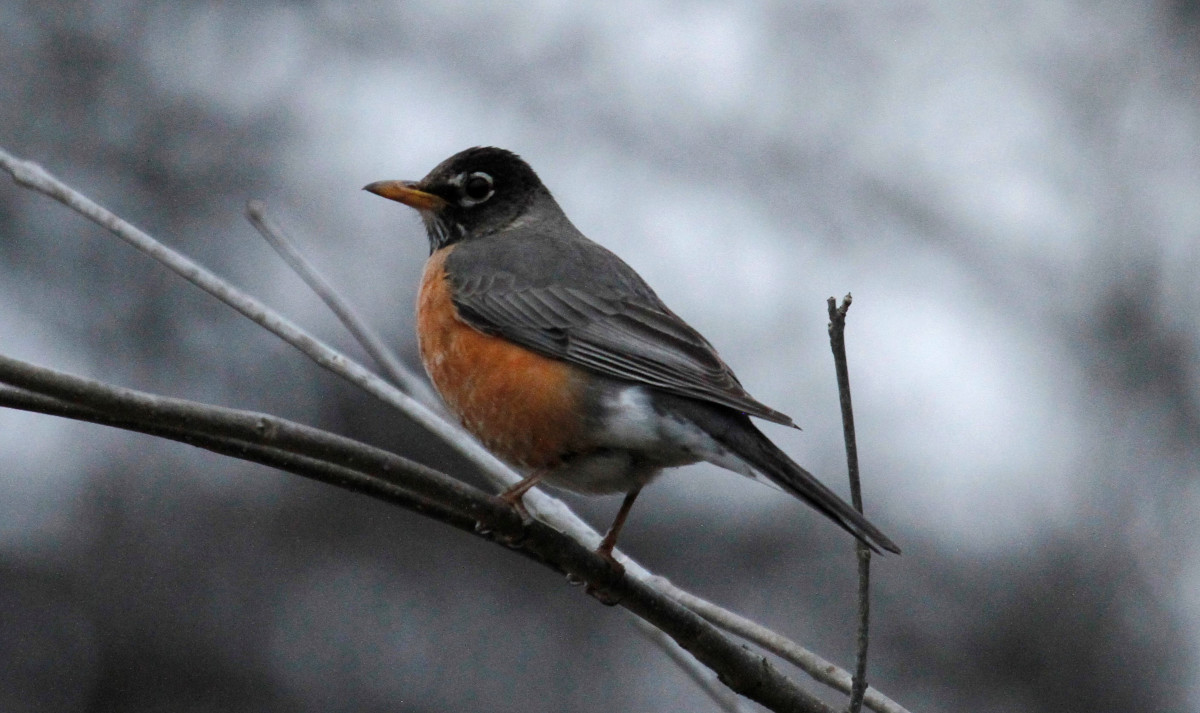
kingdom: Animalia
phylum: Chordata
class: Aves
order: Passeriformes
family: Turdidae
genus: Turdus
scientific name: Turdus migratorius
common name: American robin
